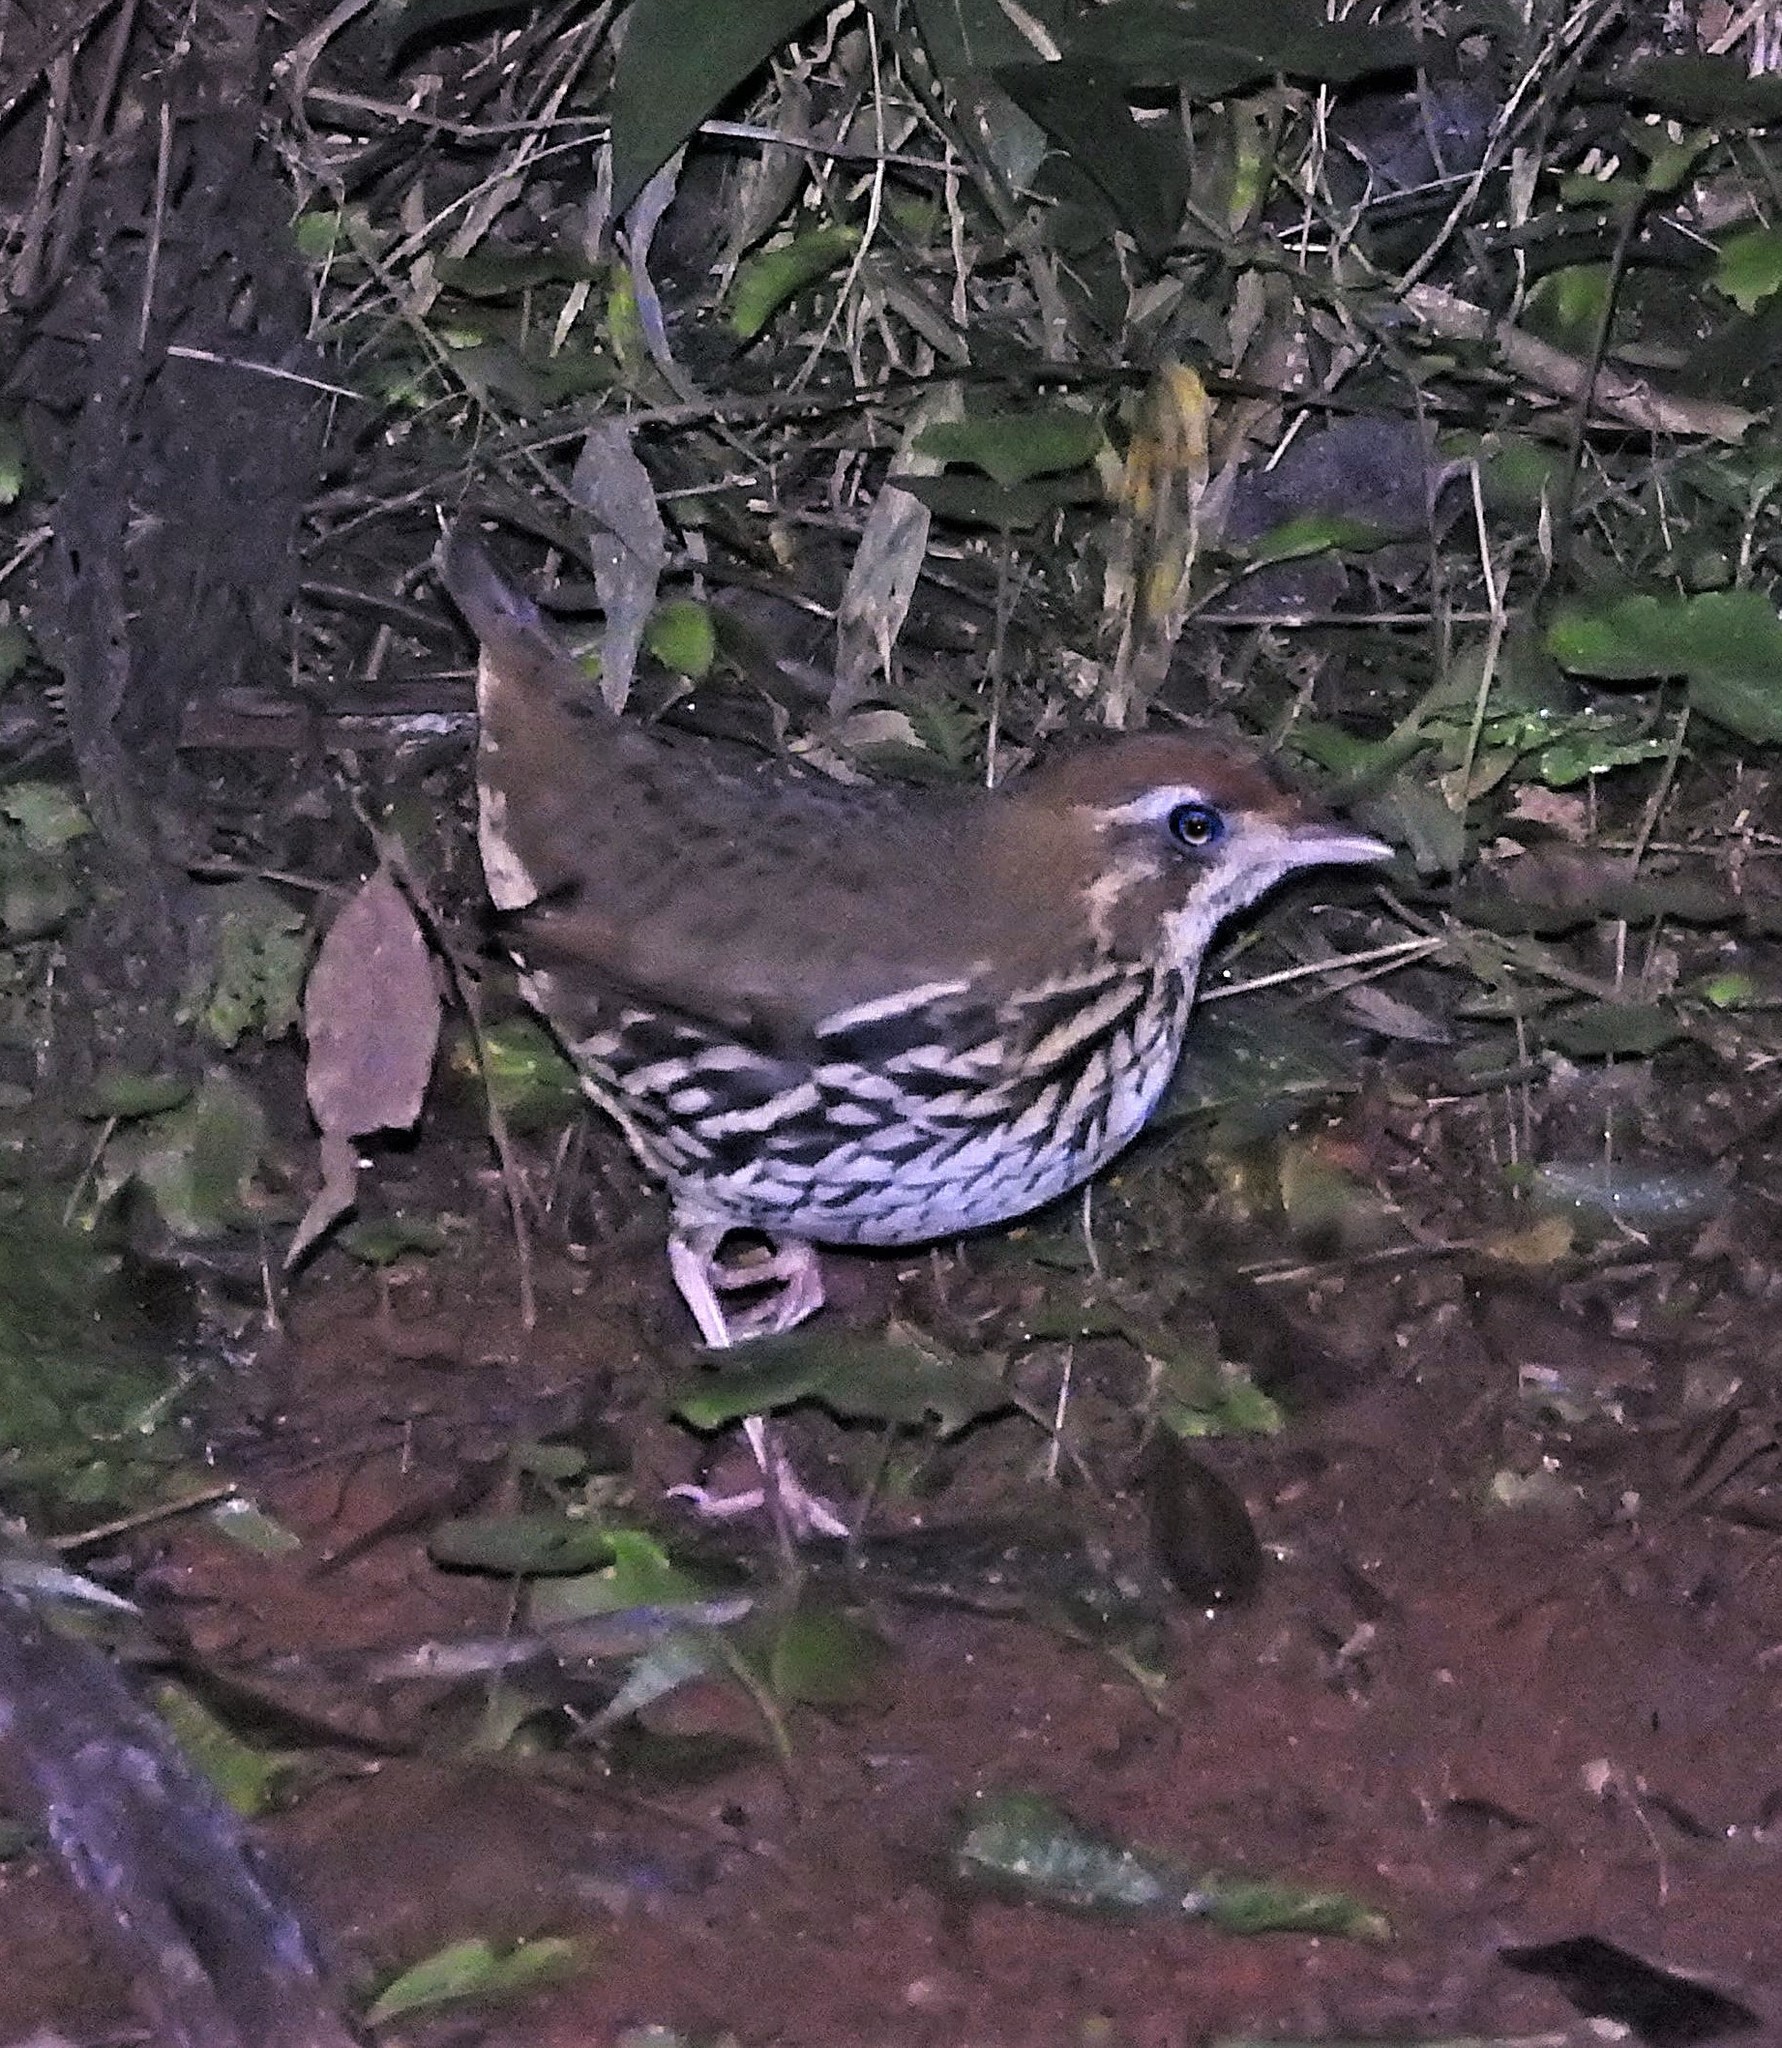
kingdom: Animalia
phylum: Chordata
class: Aves
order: Passeriformes
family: Formicariidae
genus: Chamaeza
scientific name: Chamaeza campanisona
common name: Short-tailed antthrush
